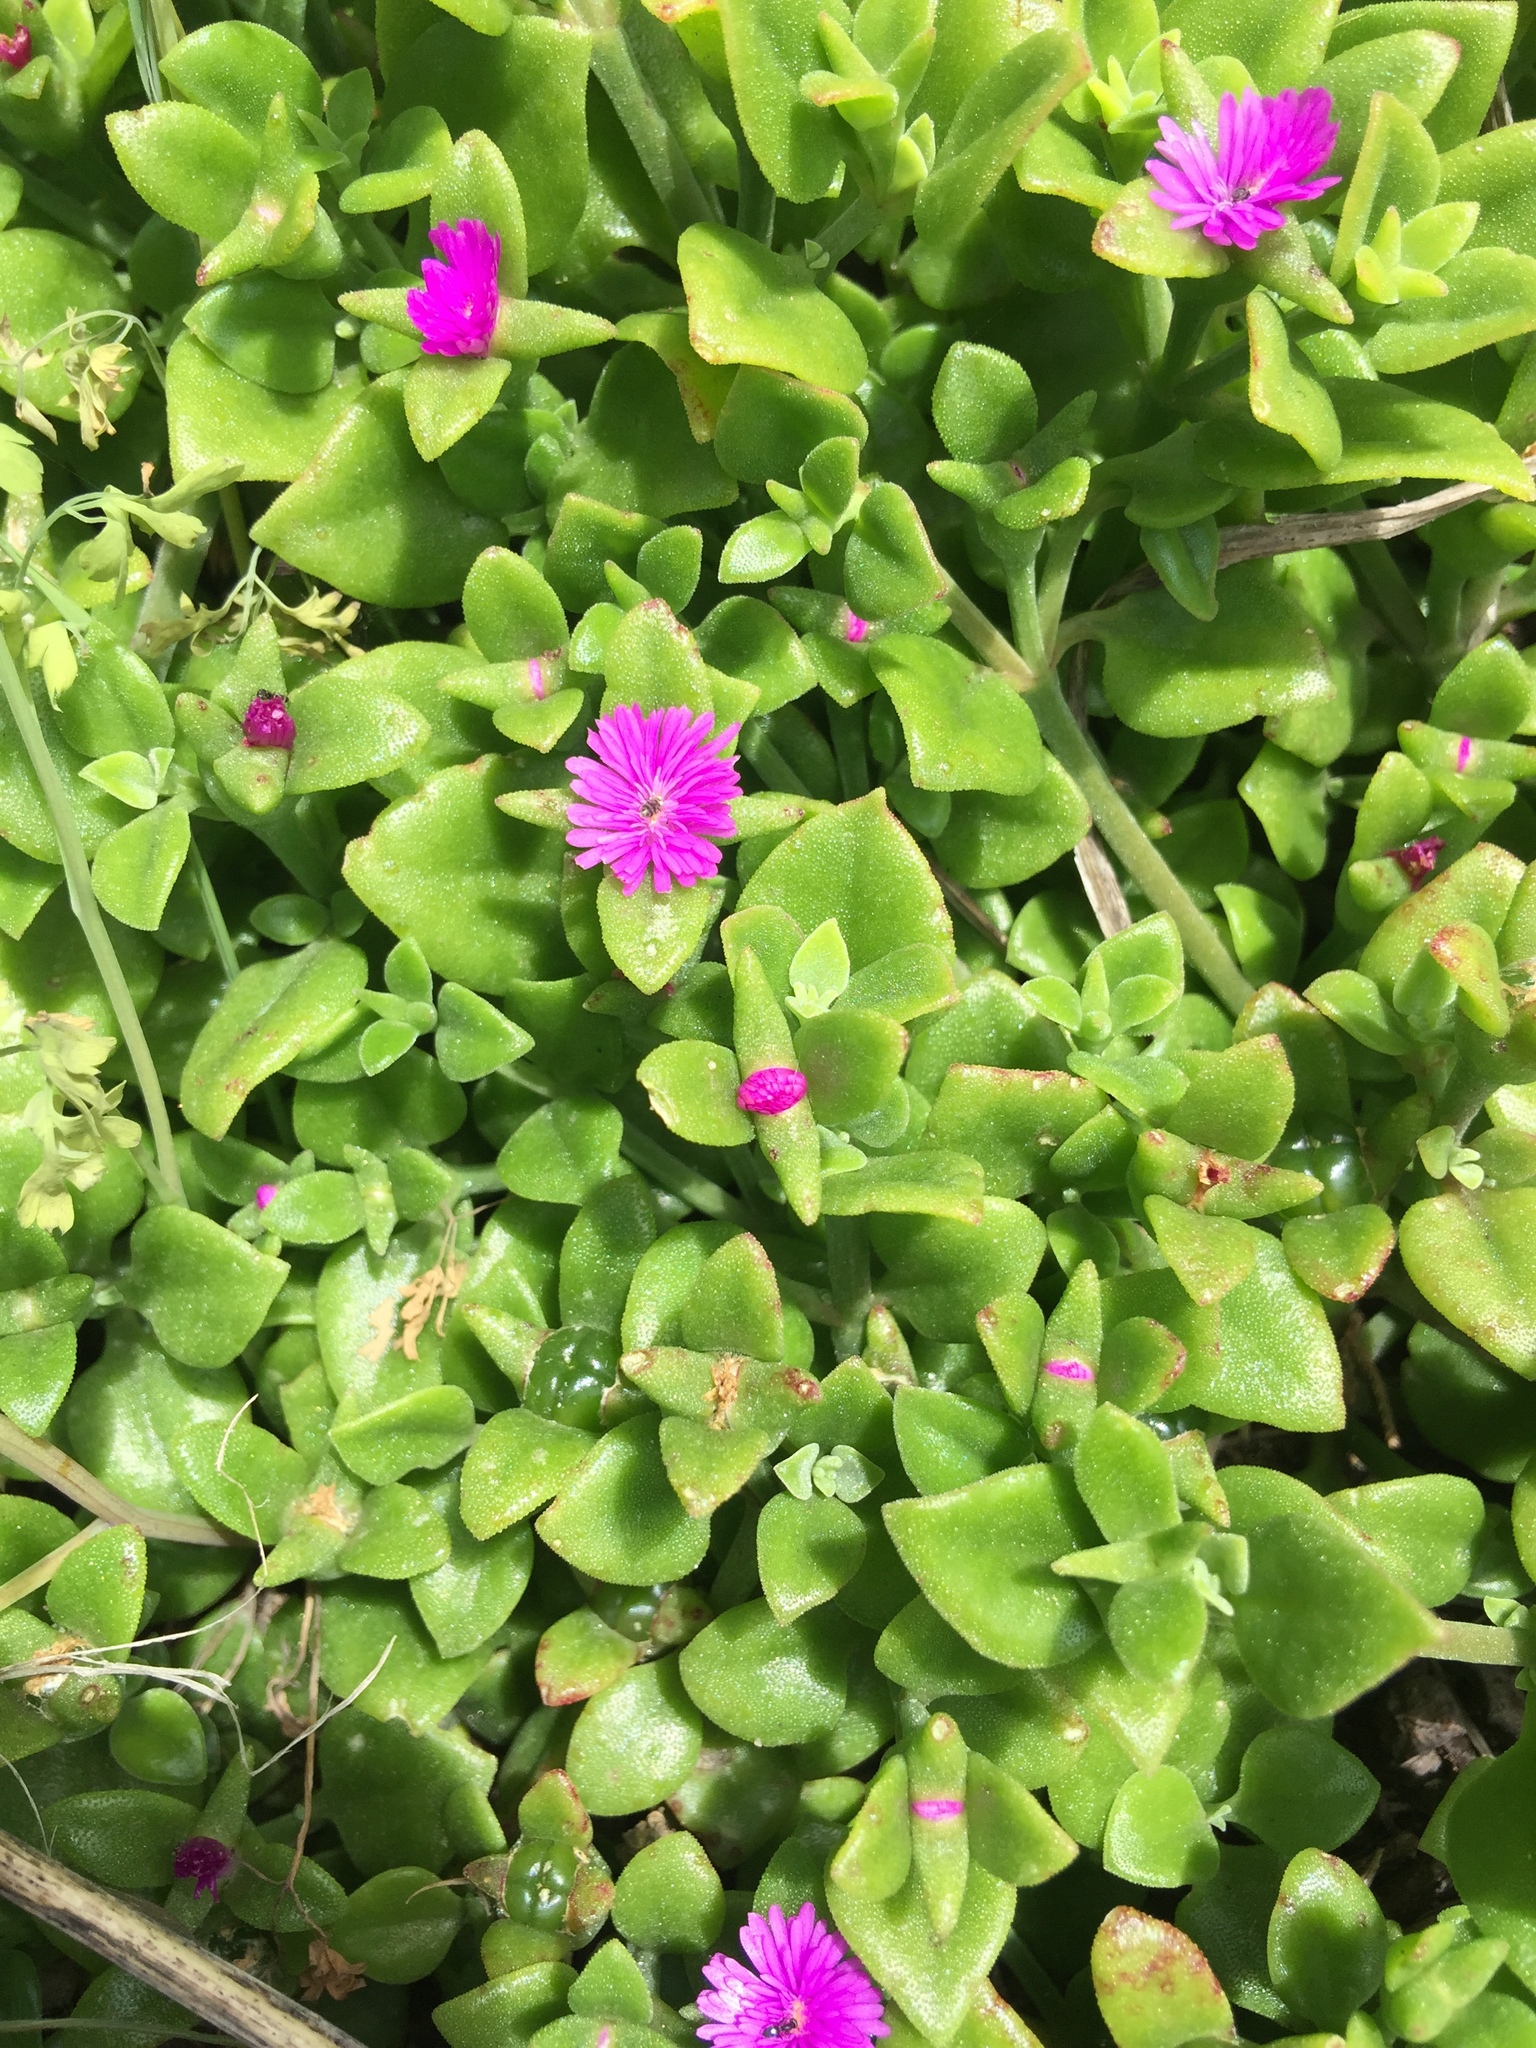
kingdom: Plantae
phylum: Tracheophyta
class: Magnoliopsida
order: Caryophyllales
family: Aizoaceae
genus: Mesembryanthemum
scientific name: Mesembryanthemum cordifolium
